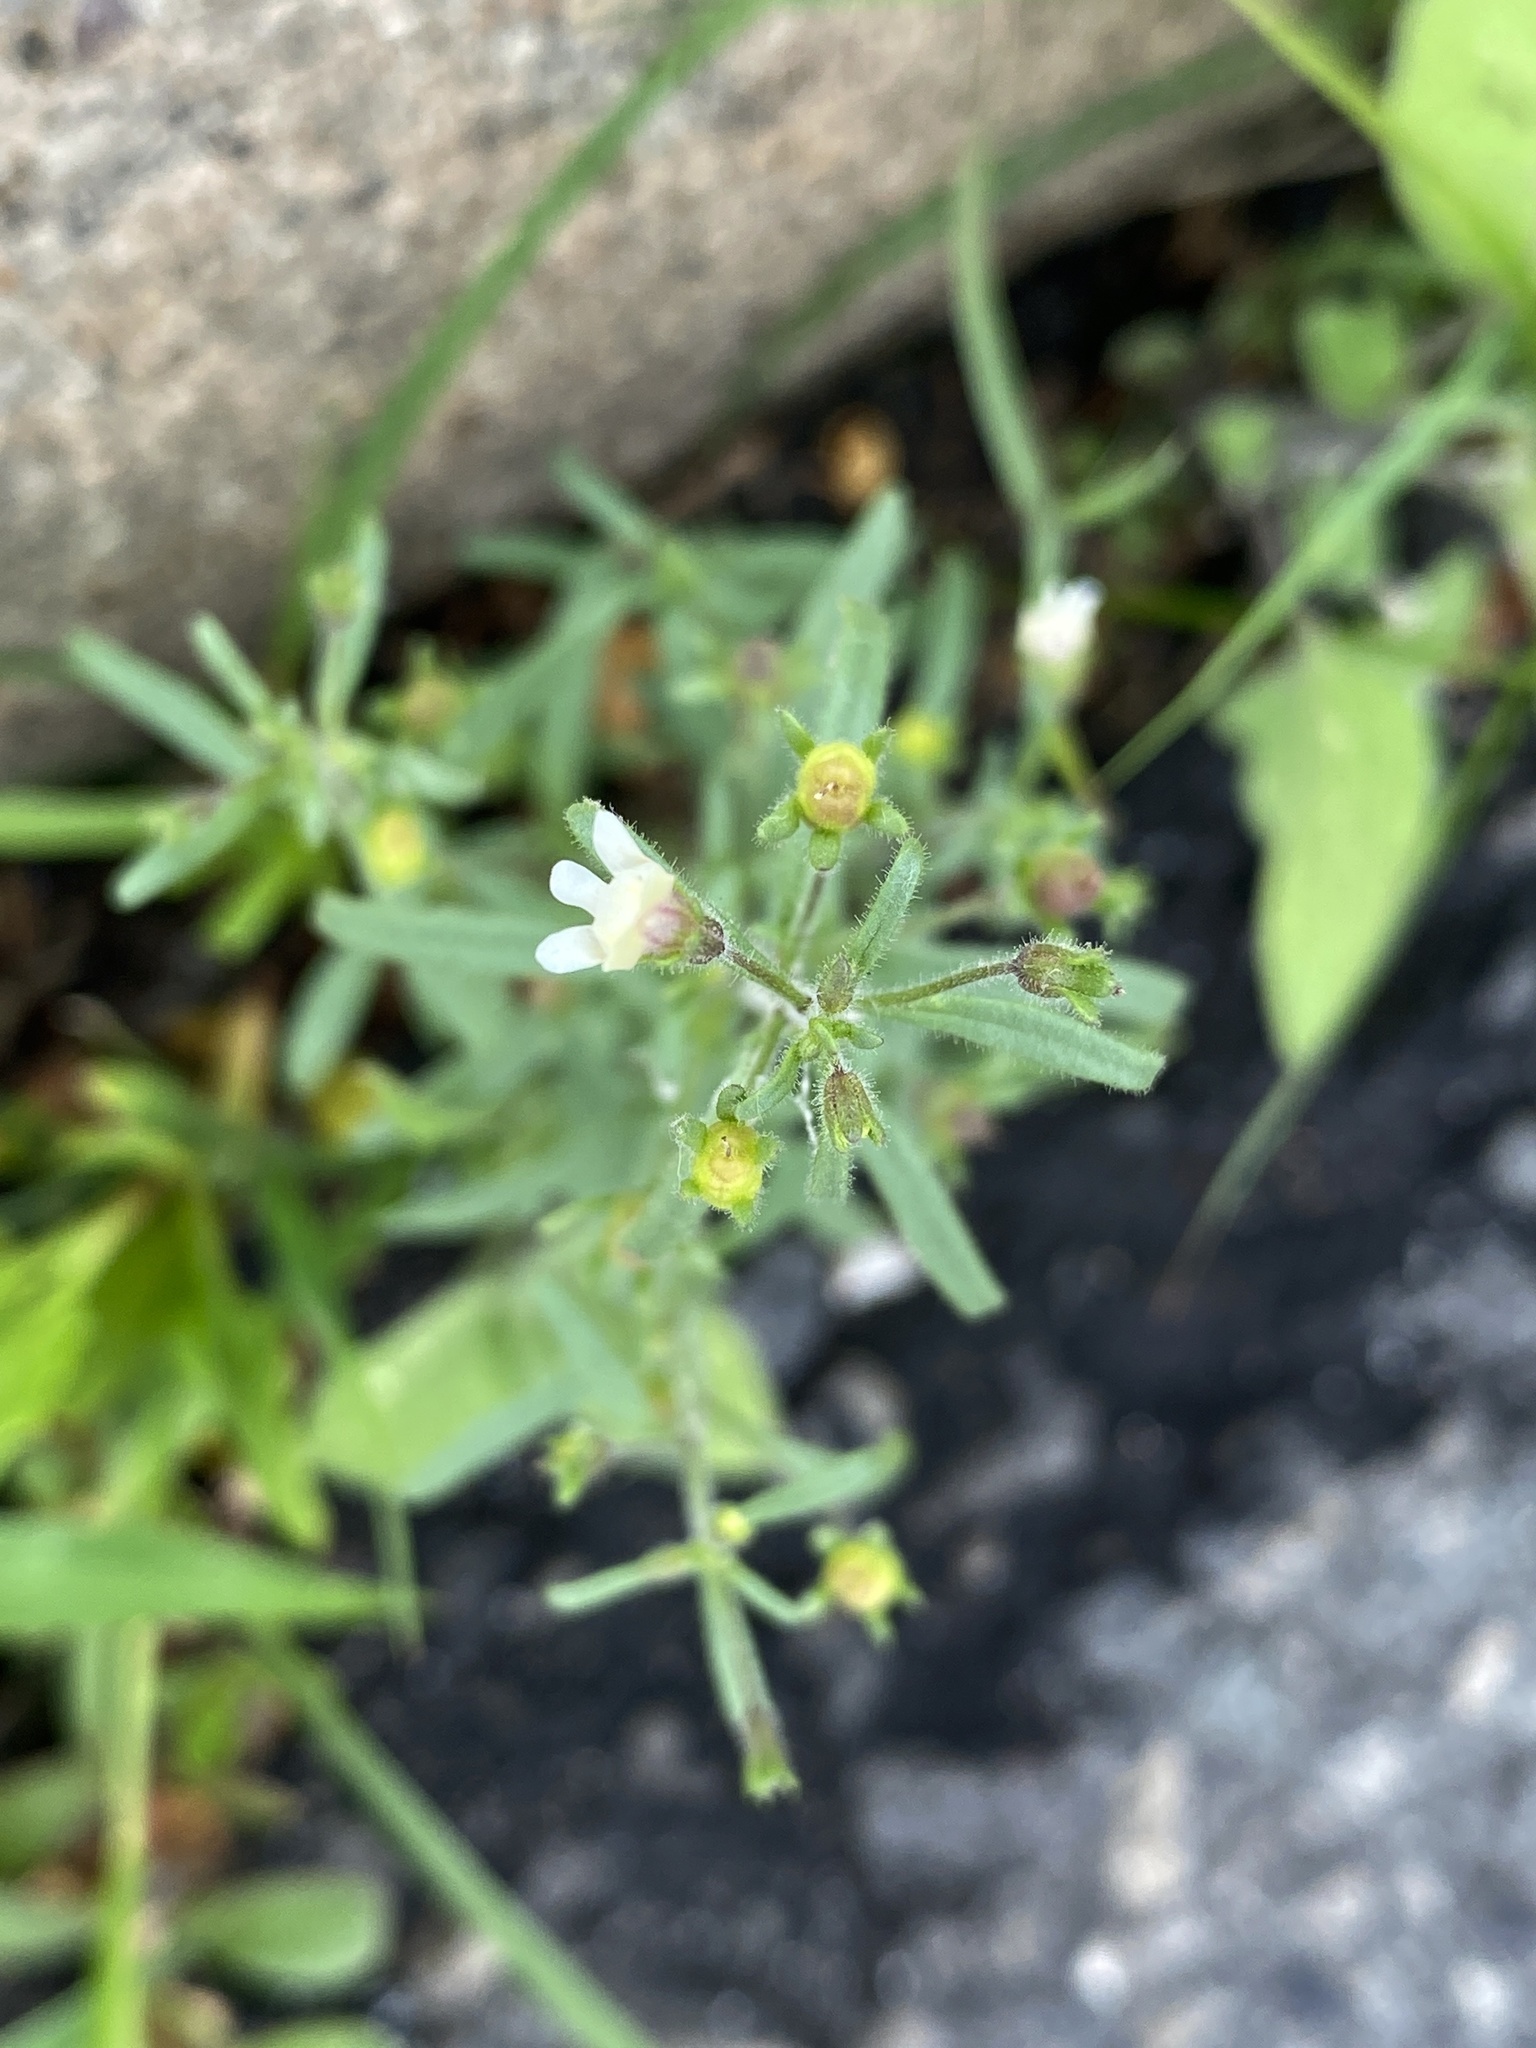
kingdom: Plantae
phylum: Tracheophyta
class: Magnoliopsida
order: Lamiales
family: Plantaginaceae
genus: Chaenorhinum
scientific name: Chaenorhinum minus
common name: Dwarf snapdragon
